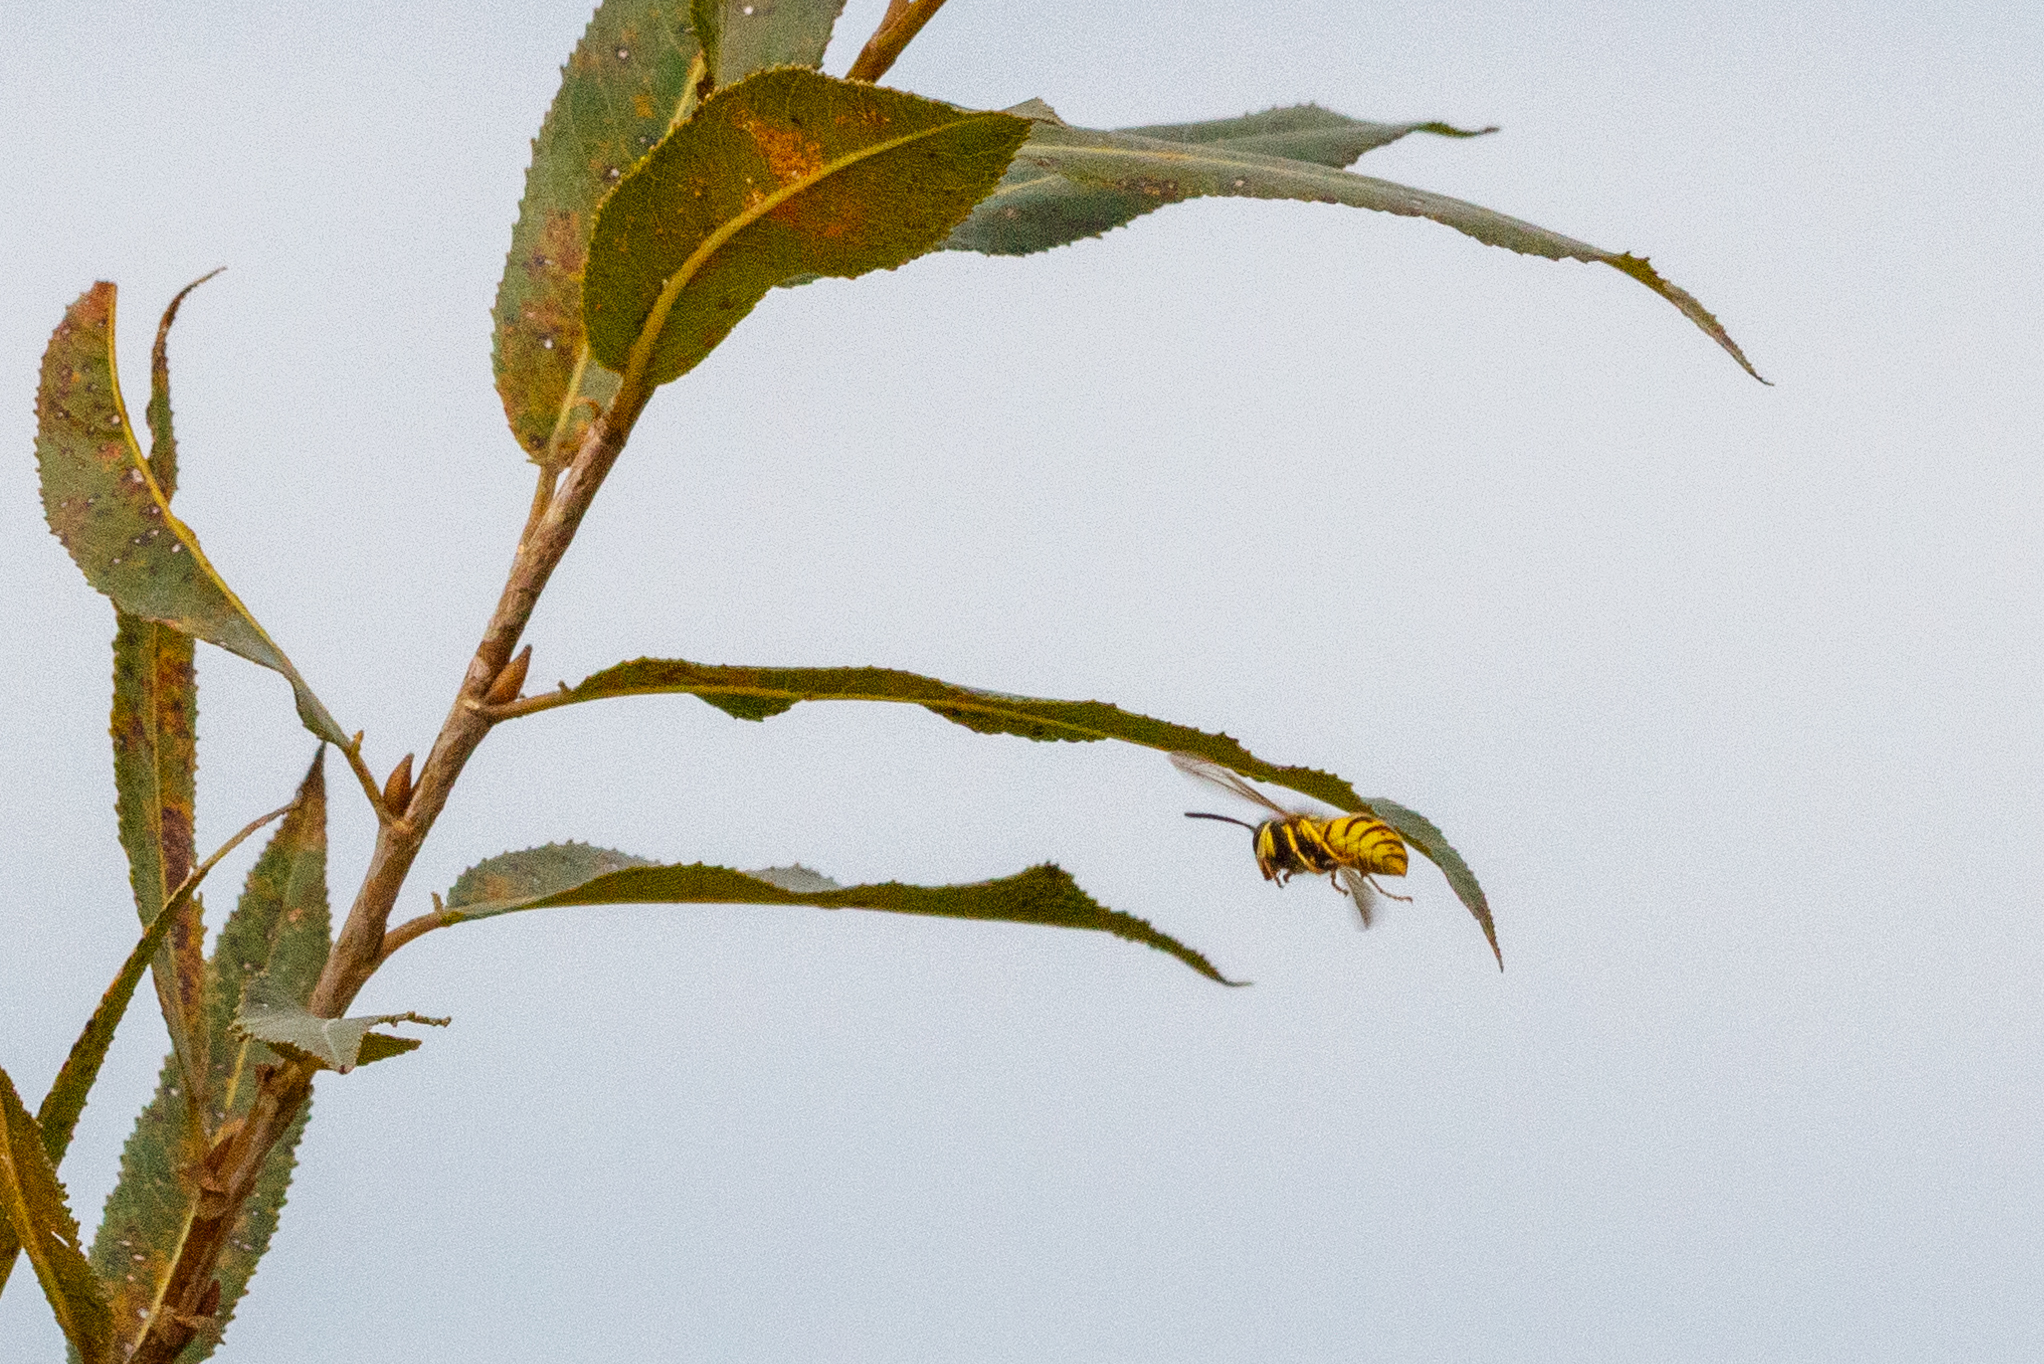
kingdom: Animalia
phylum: Arthropoda
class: Insecta
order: Hymenoptera
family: Vespidae
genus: Vespula
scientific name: Vespula germanica
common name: German wasp
